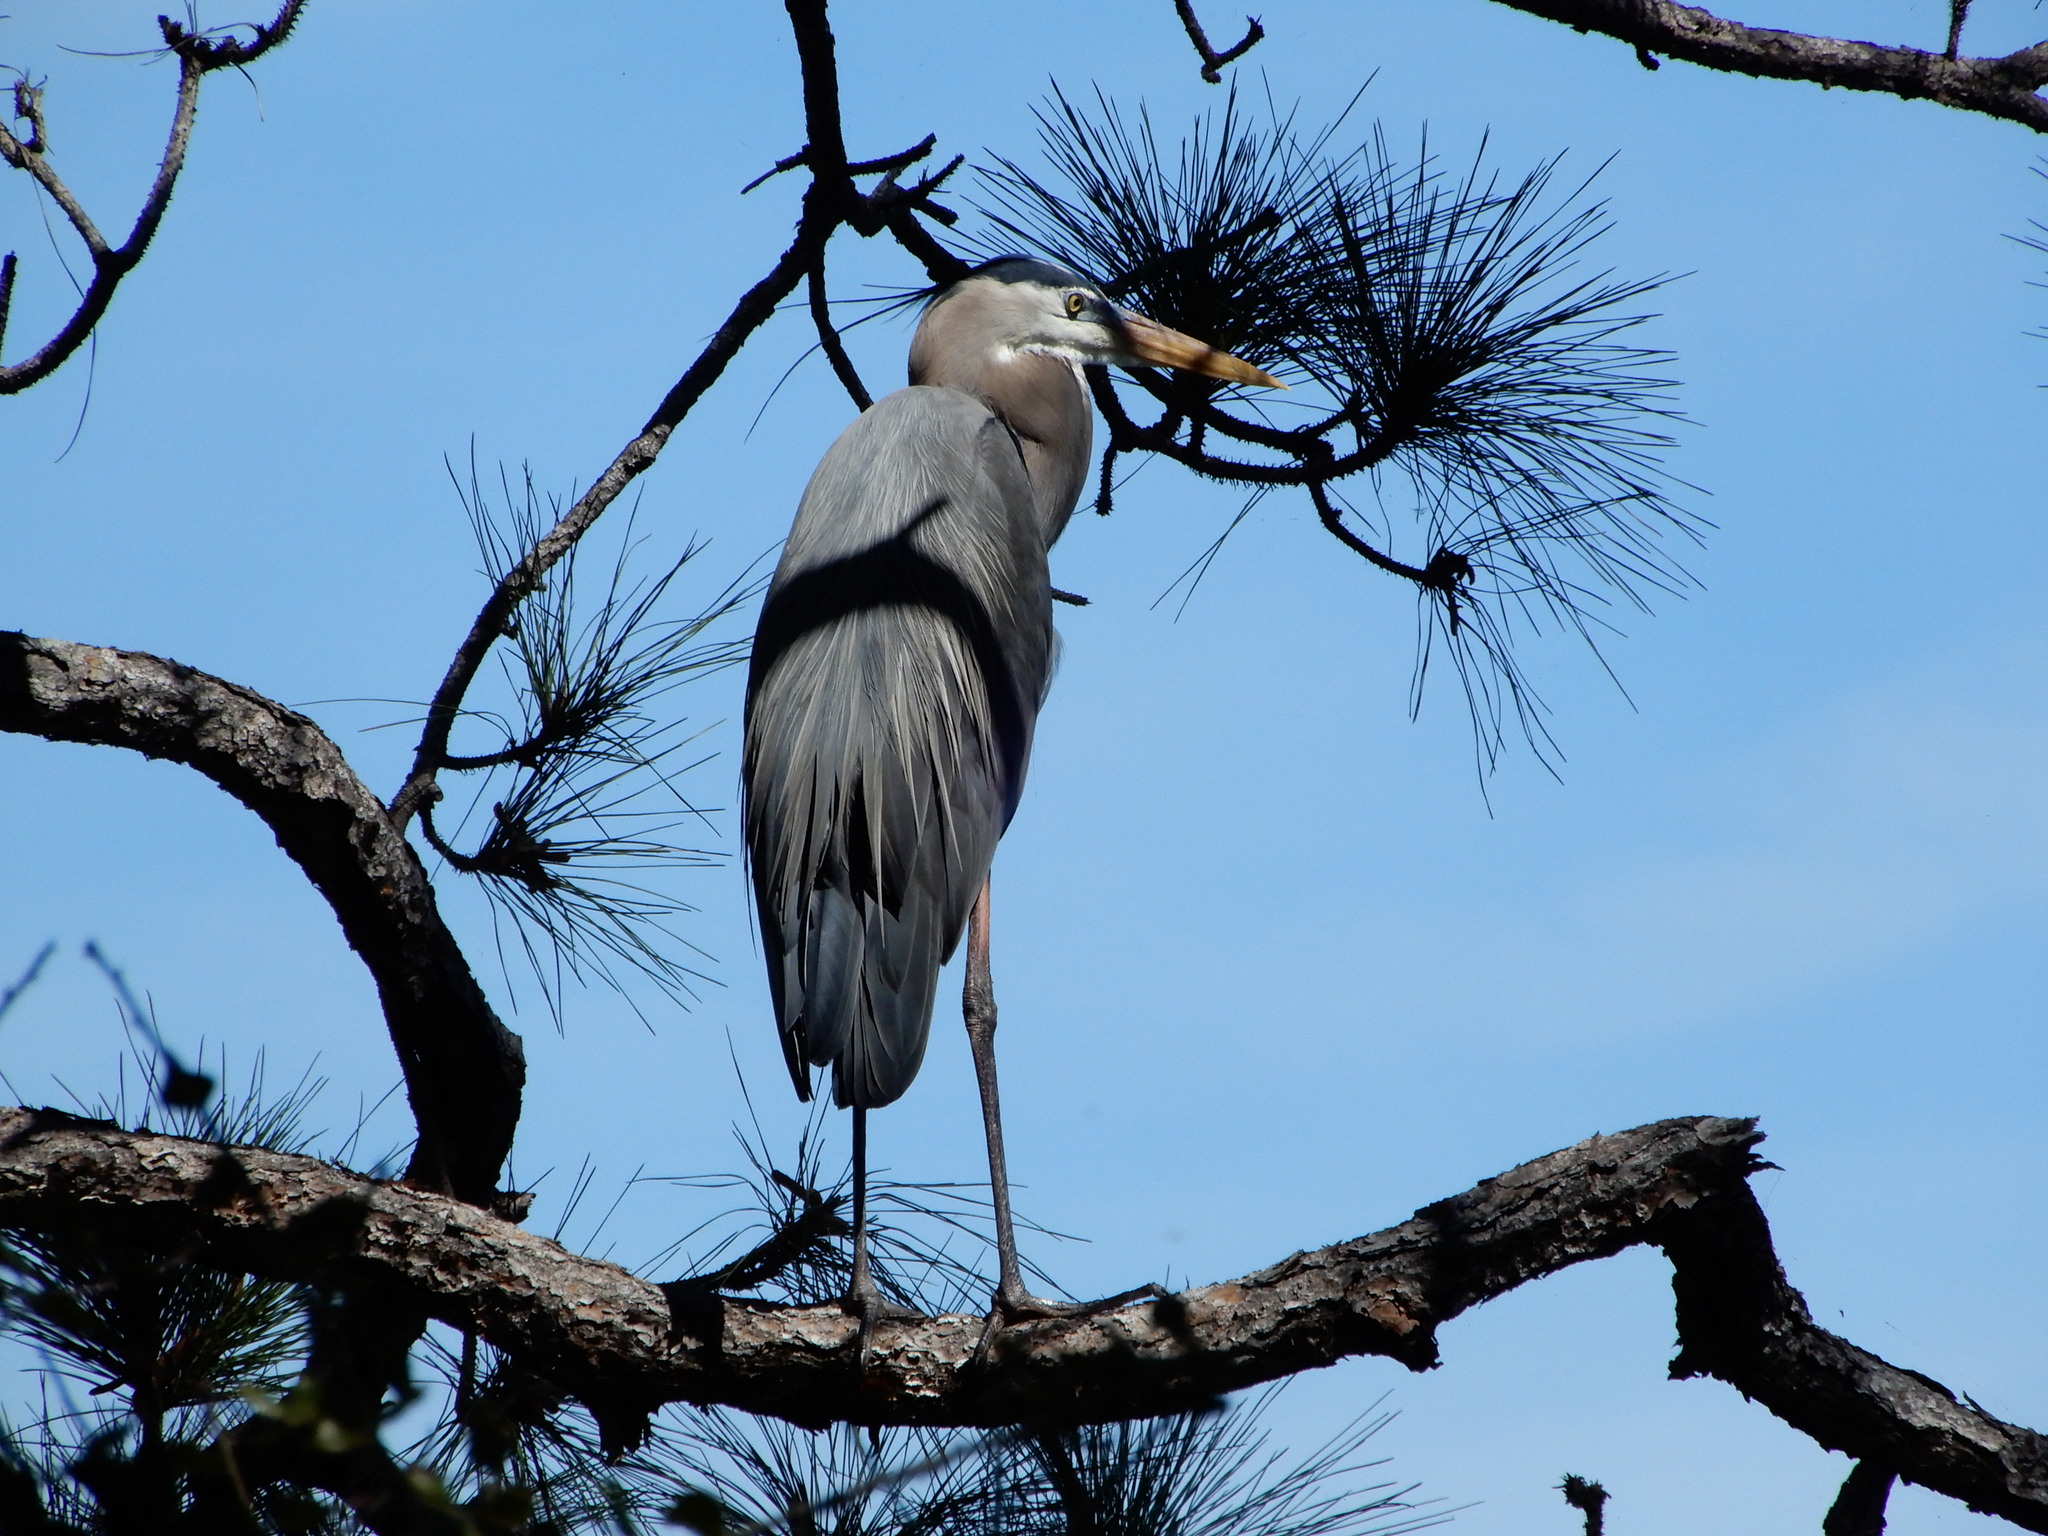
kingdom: Animalia
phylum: Chordata
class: Aves
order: Pelecaniformes
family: Ardeidae
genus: Ardea
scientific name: Ardea herodias
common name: Great blue heron
